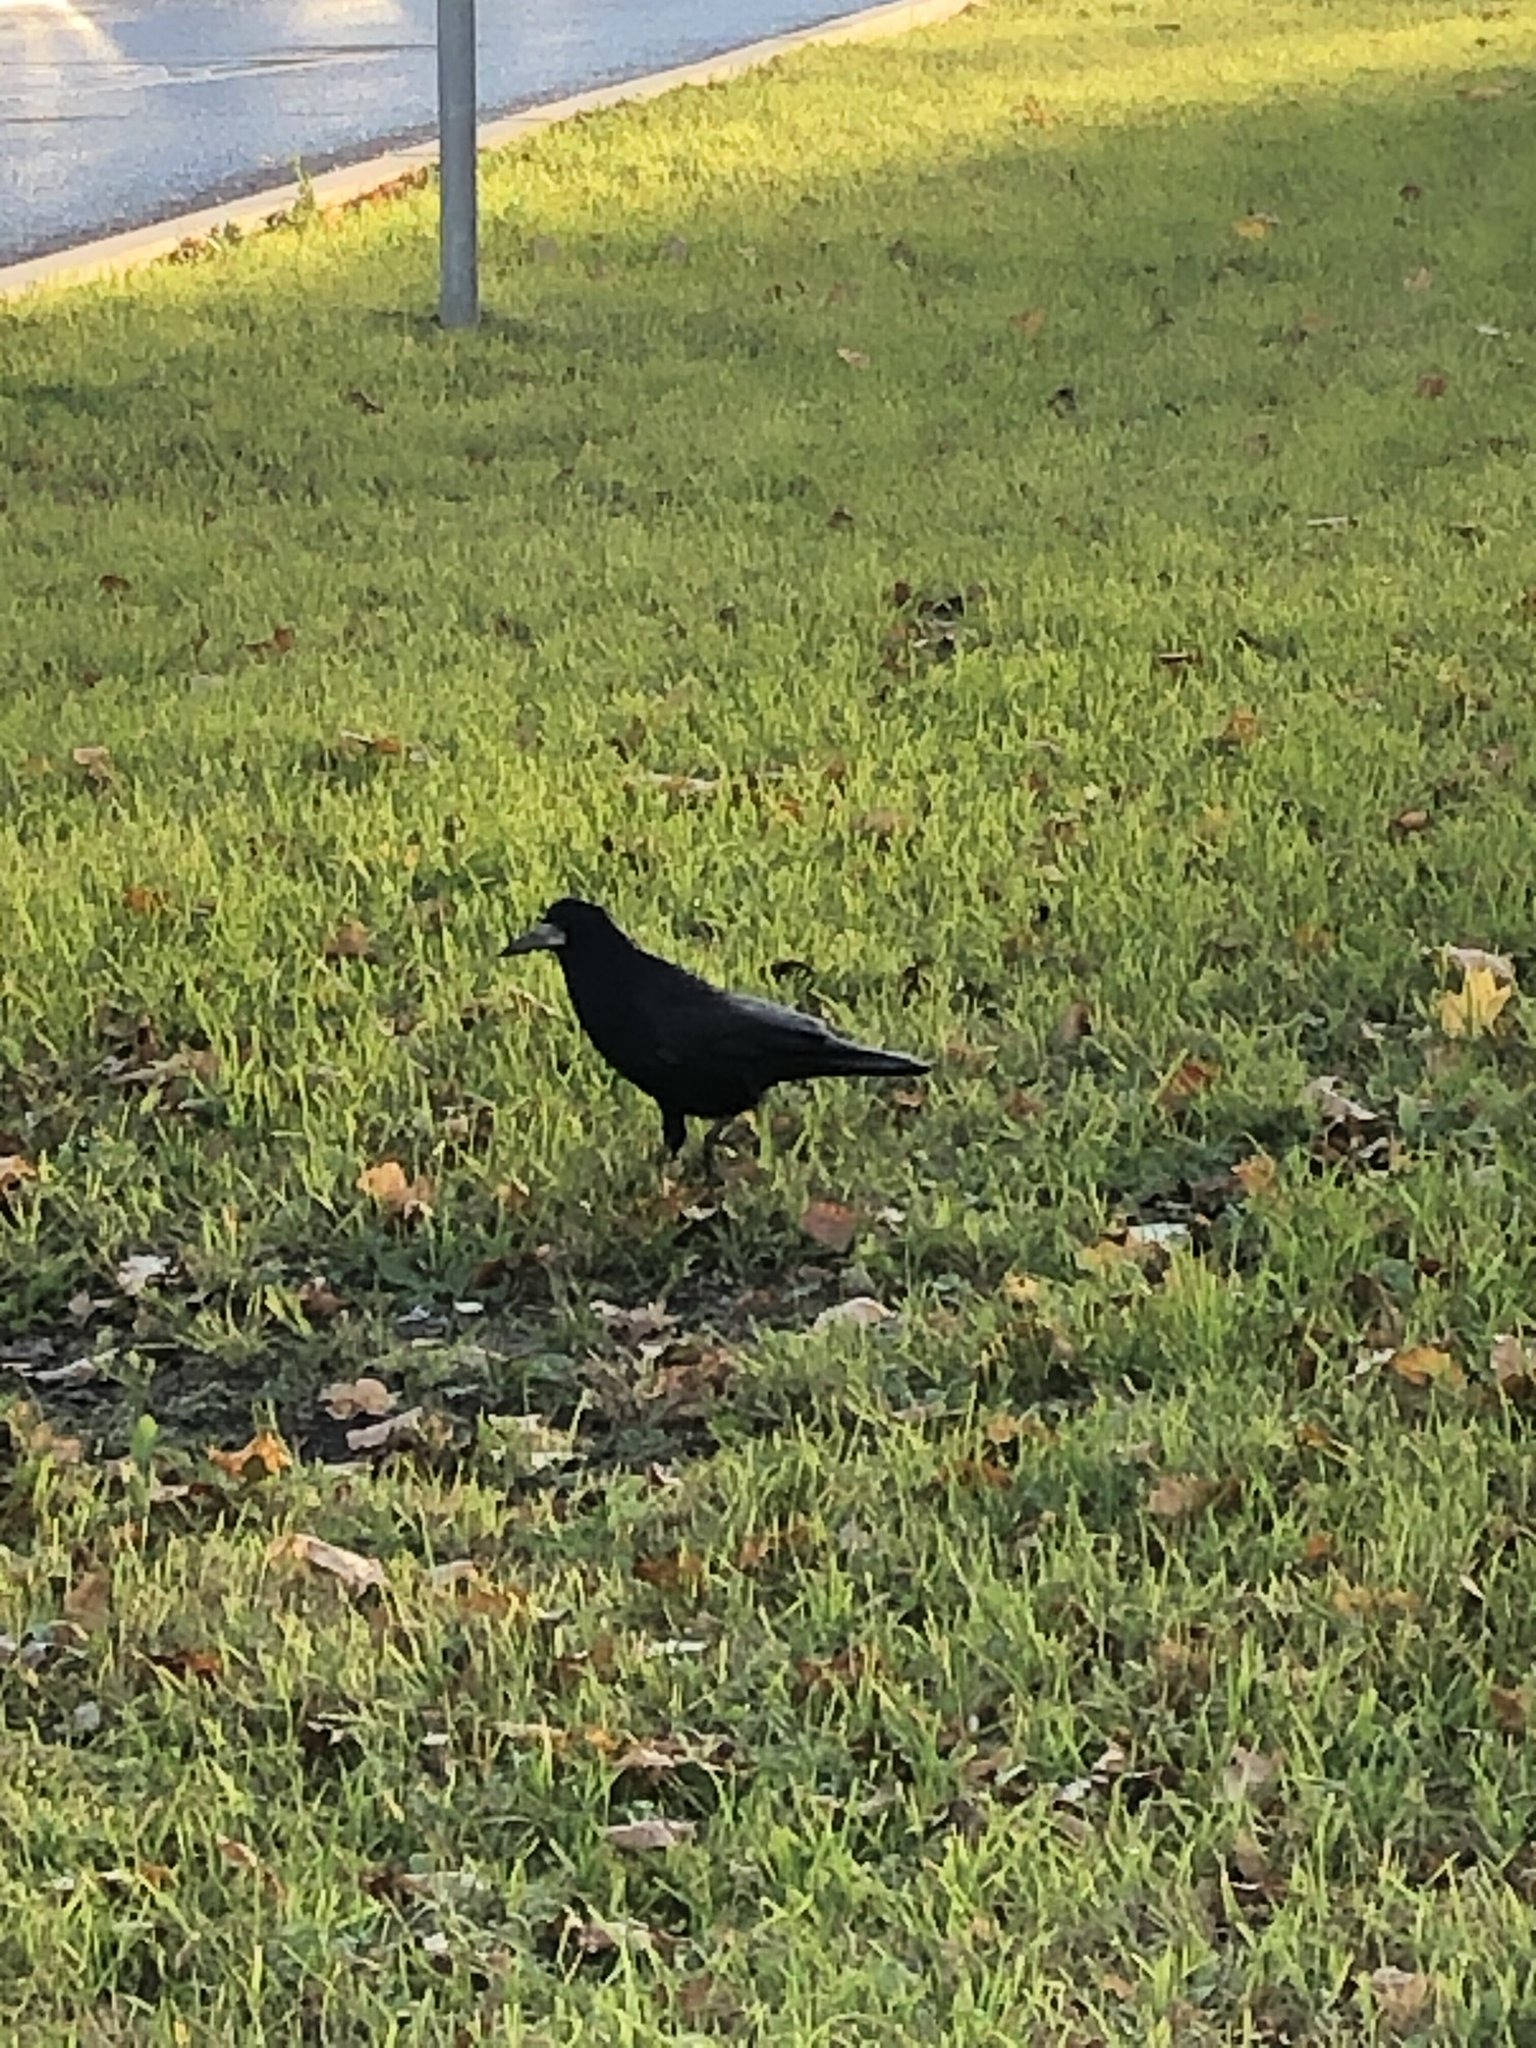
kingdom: Animalia
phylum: Chordata
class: Aves
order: Passeriformes
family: Corvidae
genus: Corvus
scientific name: Corvus frugilegus
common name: Rook
